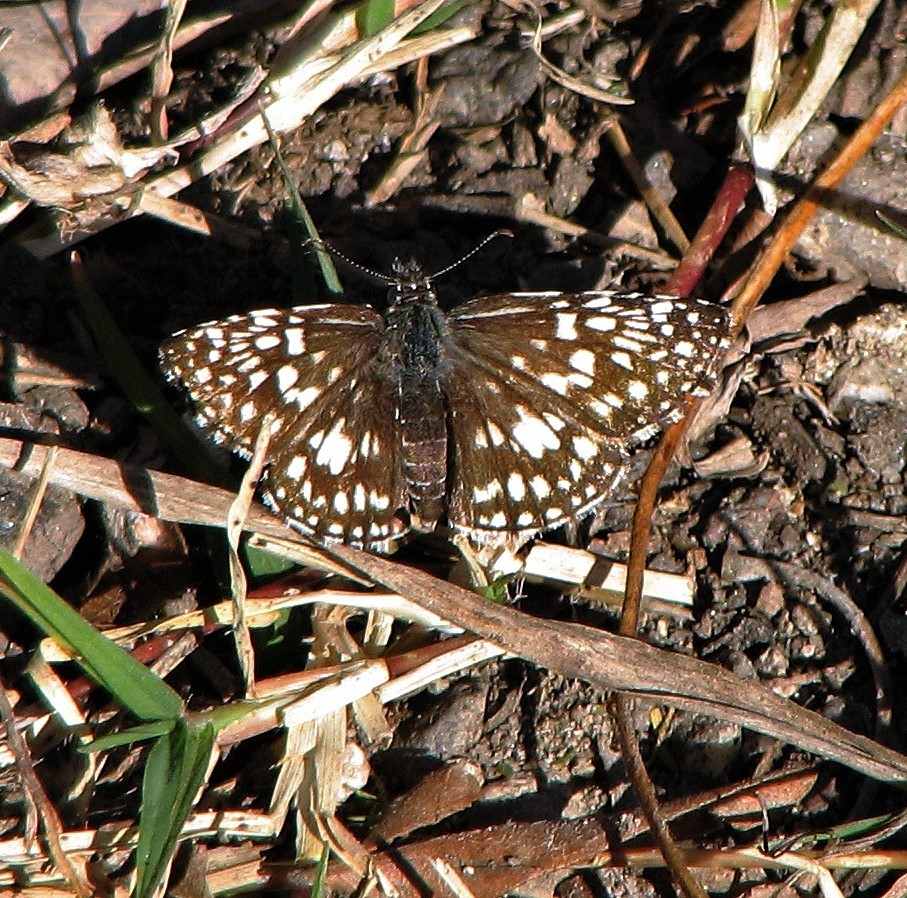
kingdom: Animalia
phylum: Arthropoda
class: Insecta
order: Lepidoptera
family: Hesperiidae
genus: Pyrgus
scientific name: Pyrgus oileus
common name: Tropical checkered-skipper
